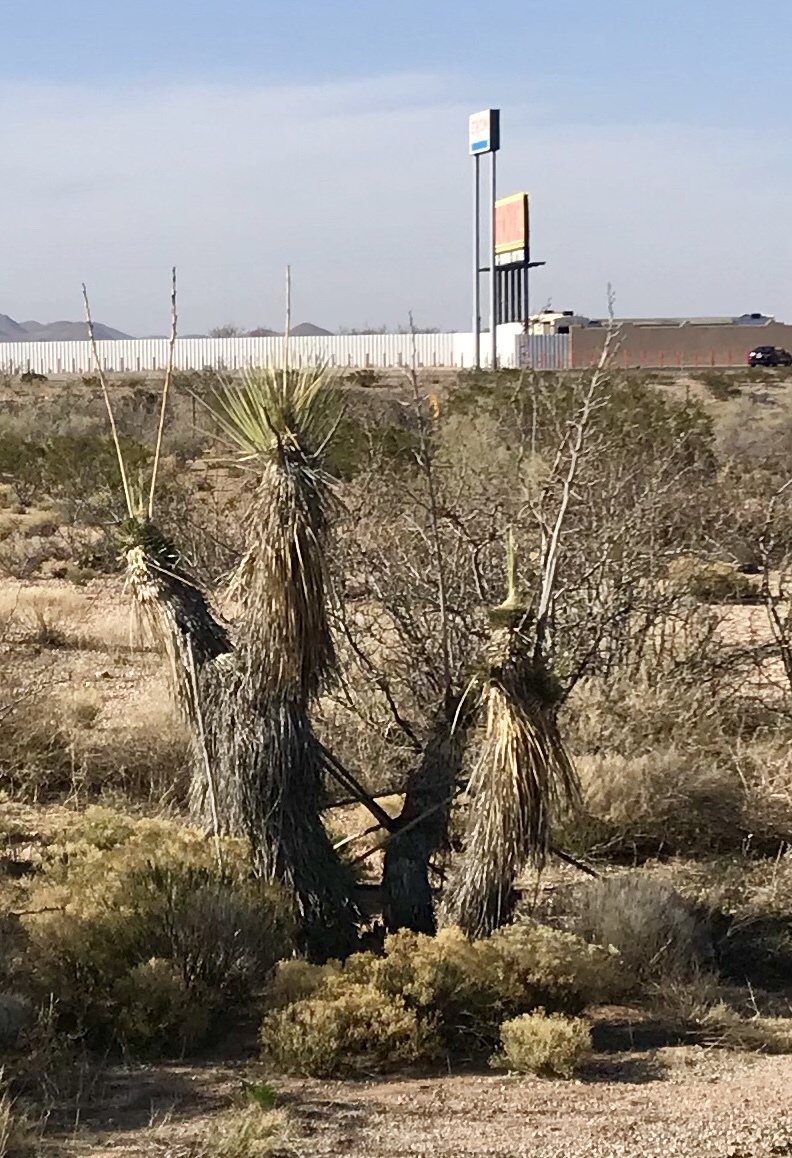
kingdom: Plantae
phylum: Tracheophyta
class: Liliopsida
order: Asparagales
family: Asparagaceae
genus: Yucca
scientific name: Yucca elata
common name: Palmella
